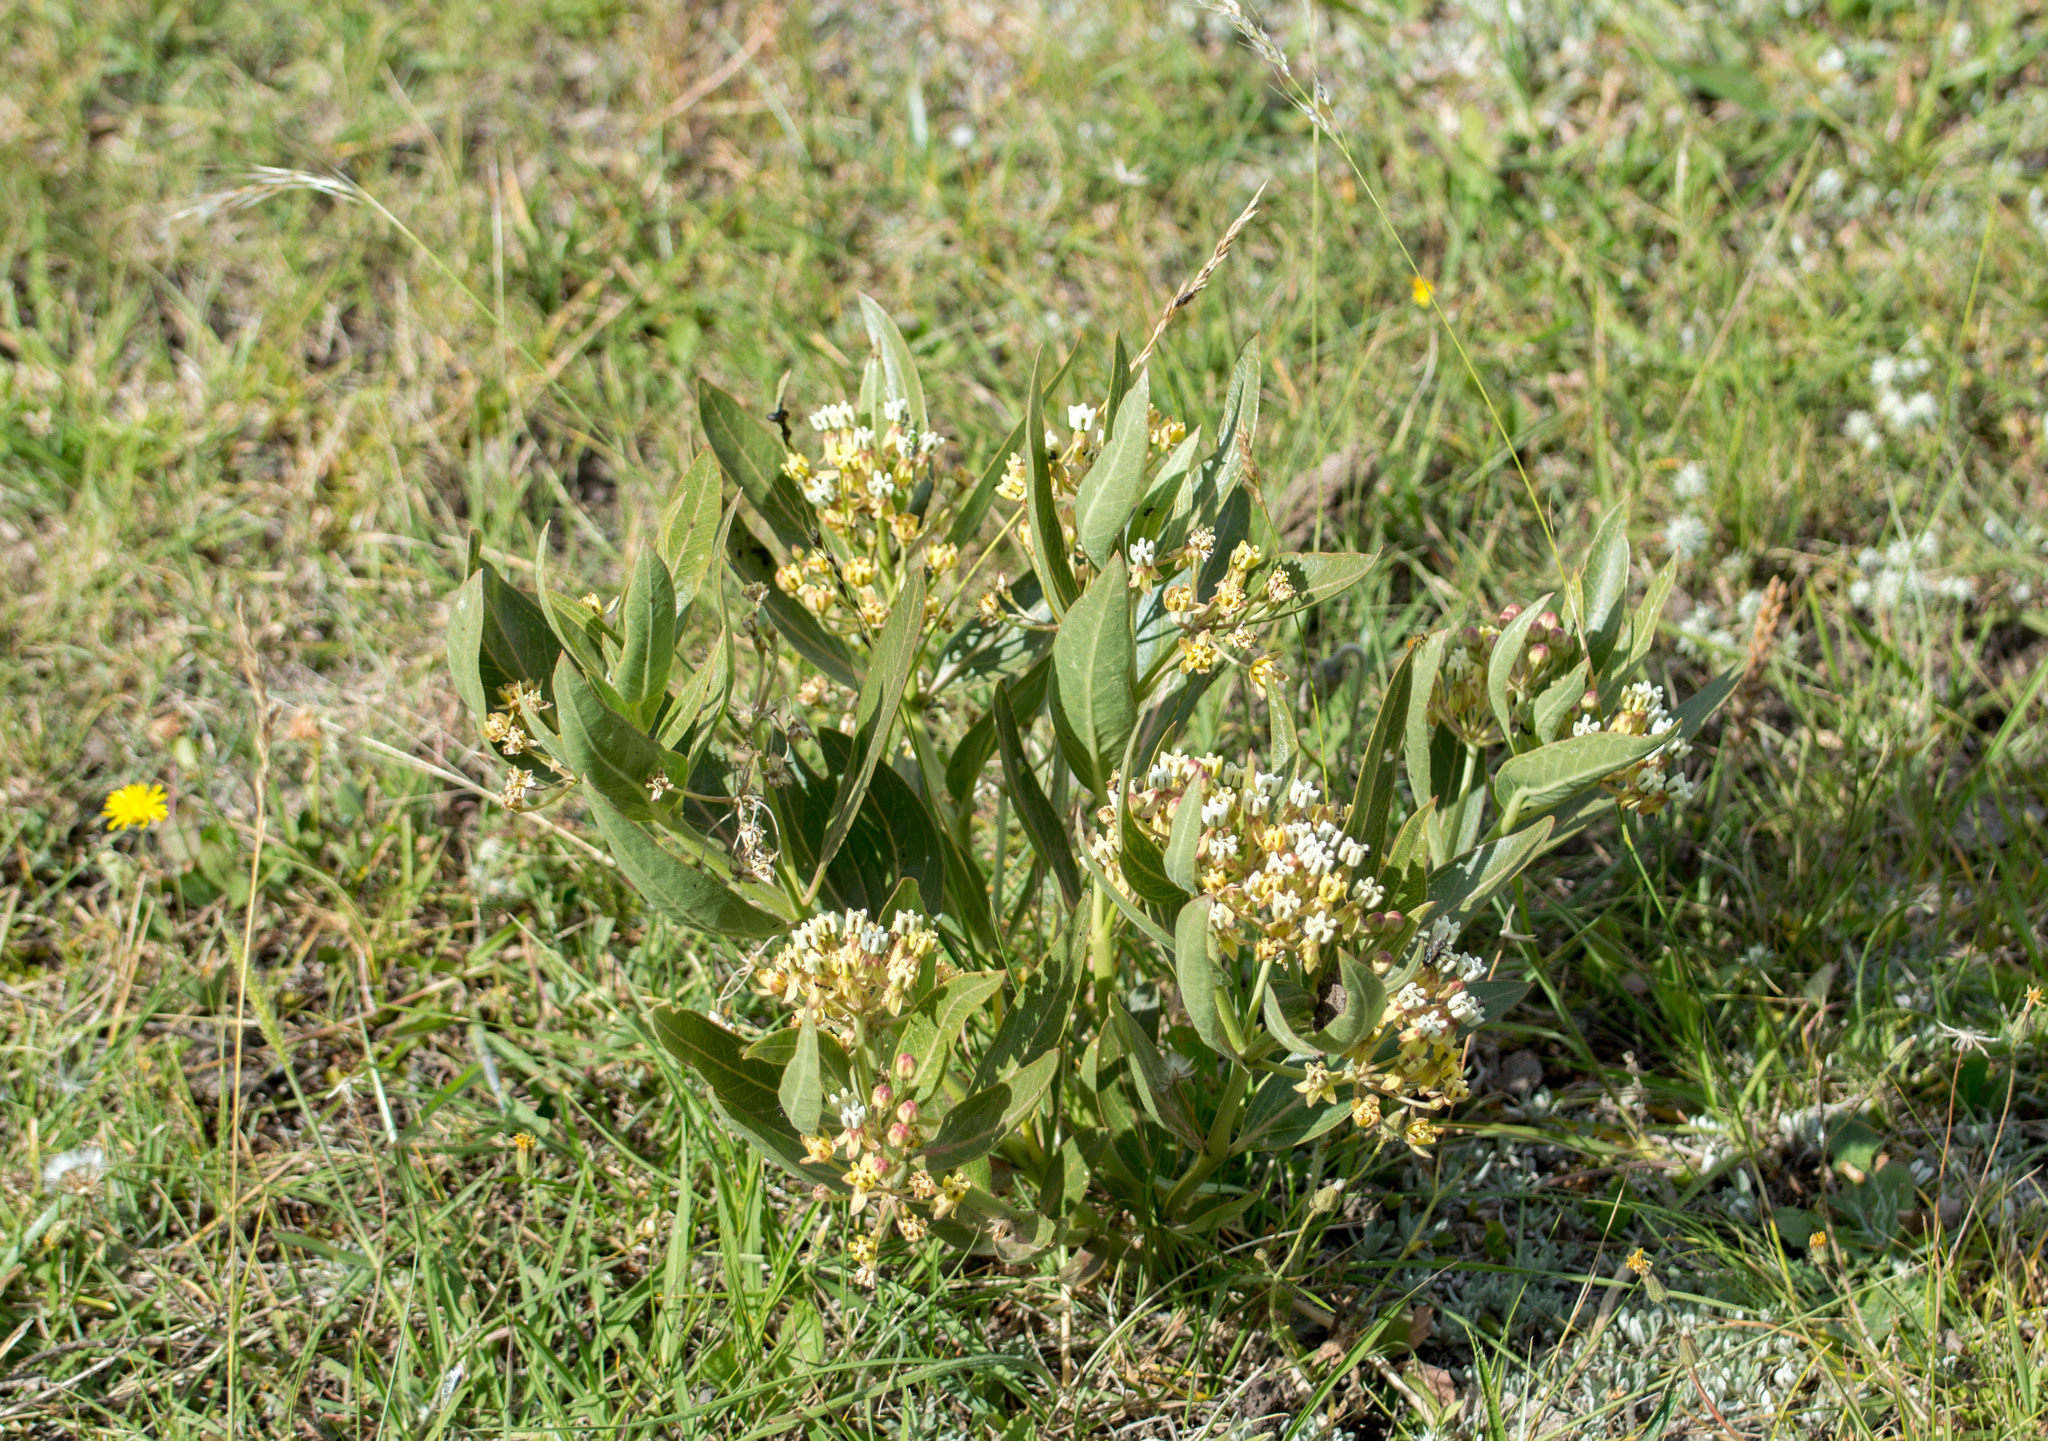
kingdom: Plantae
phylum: Tracheophyta
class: Magnoliopsida
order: Gentianales
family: Apocynaceae
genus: Asclepias
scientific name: Asclepias mellodora
